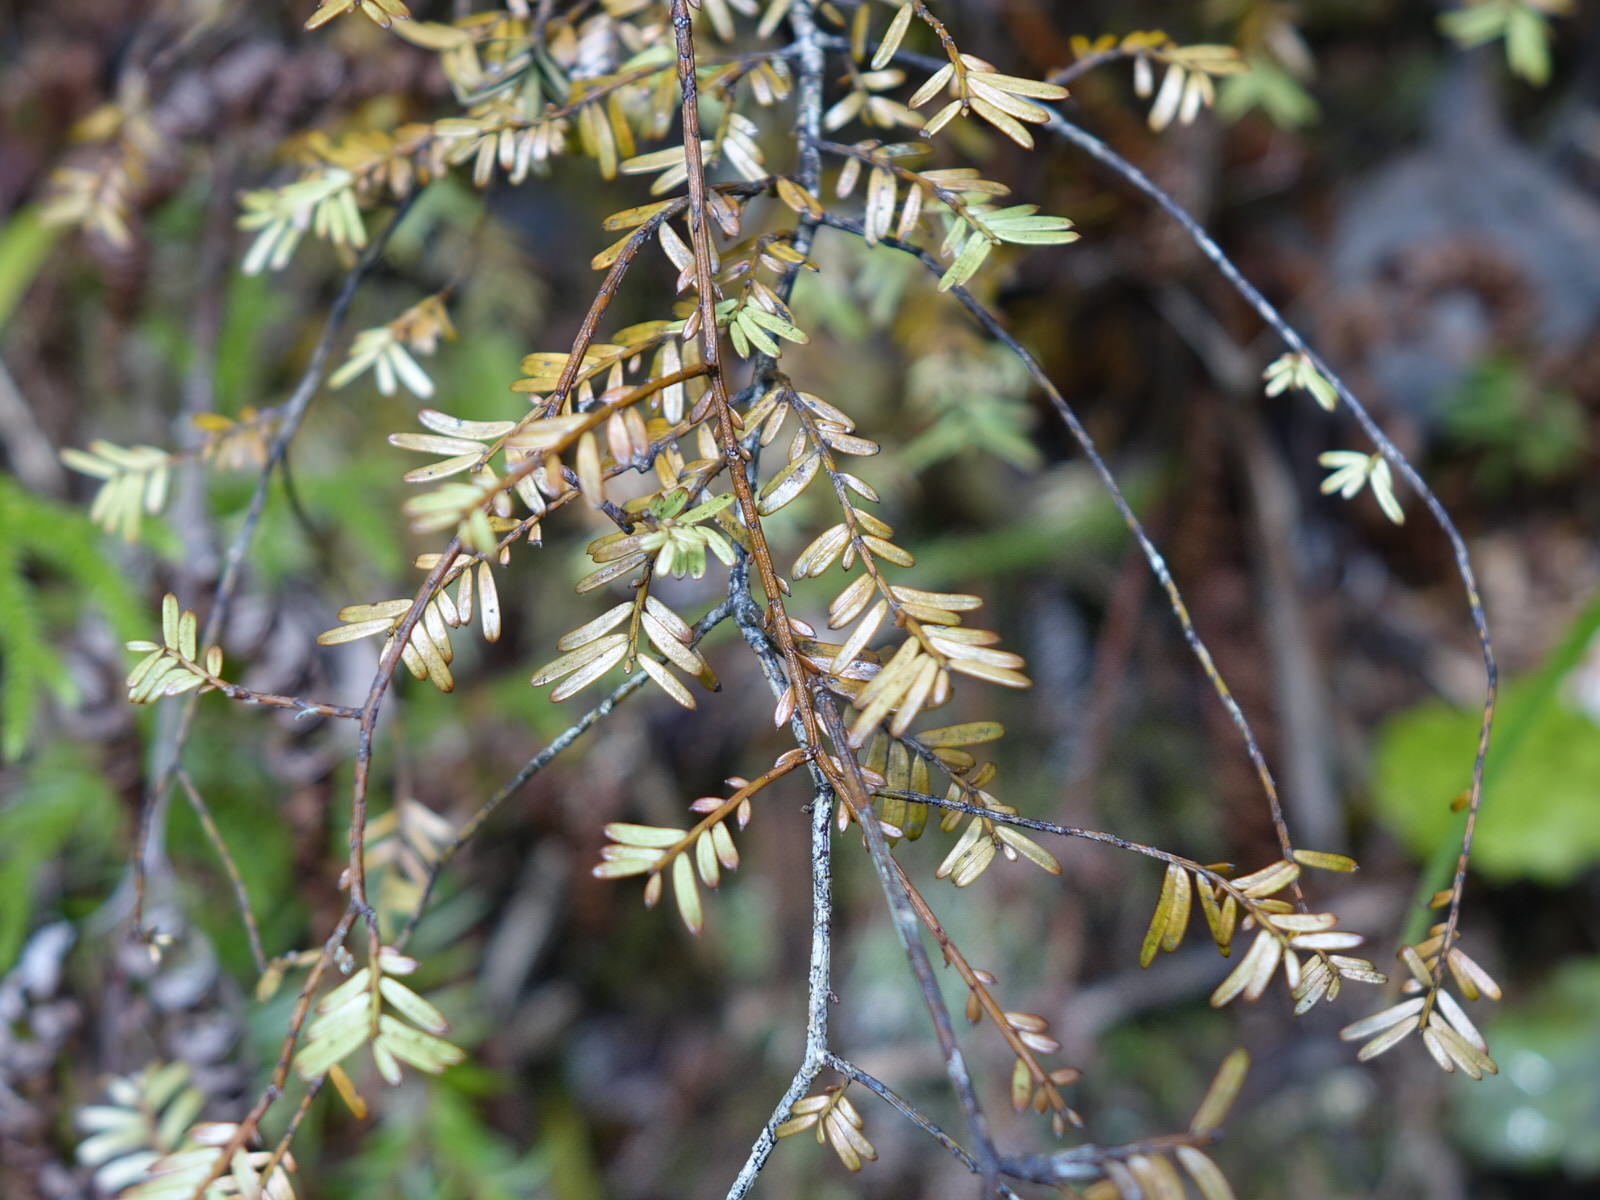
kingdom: Plantae
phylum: Tracheophyta
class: Pinopsida
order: Pinales
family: Podocarpaceae
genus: Prumnopitys
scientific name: Prumnopitys taxifolia
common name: Matai
